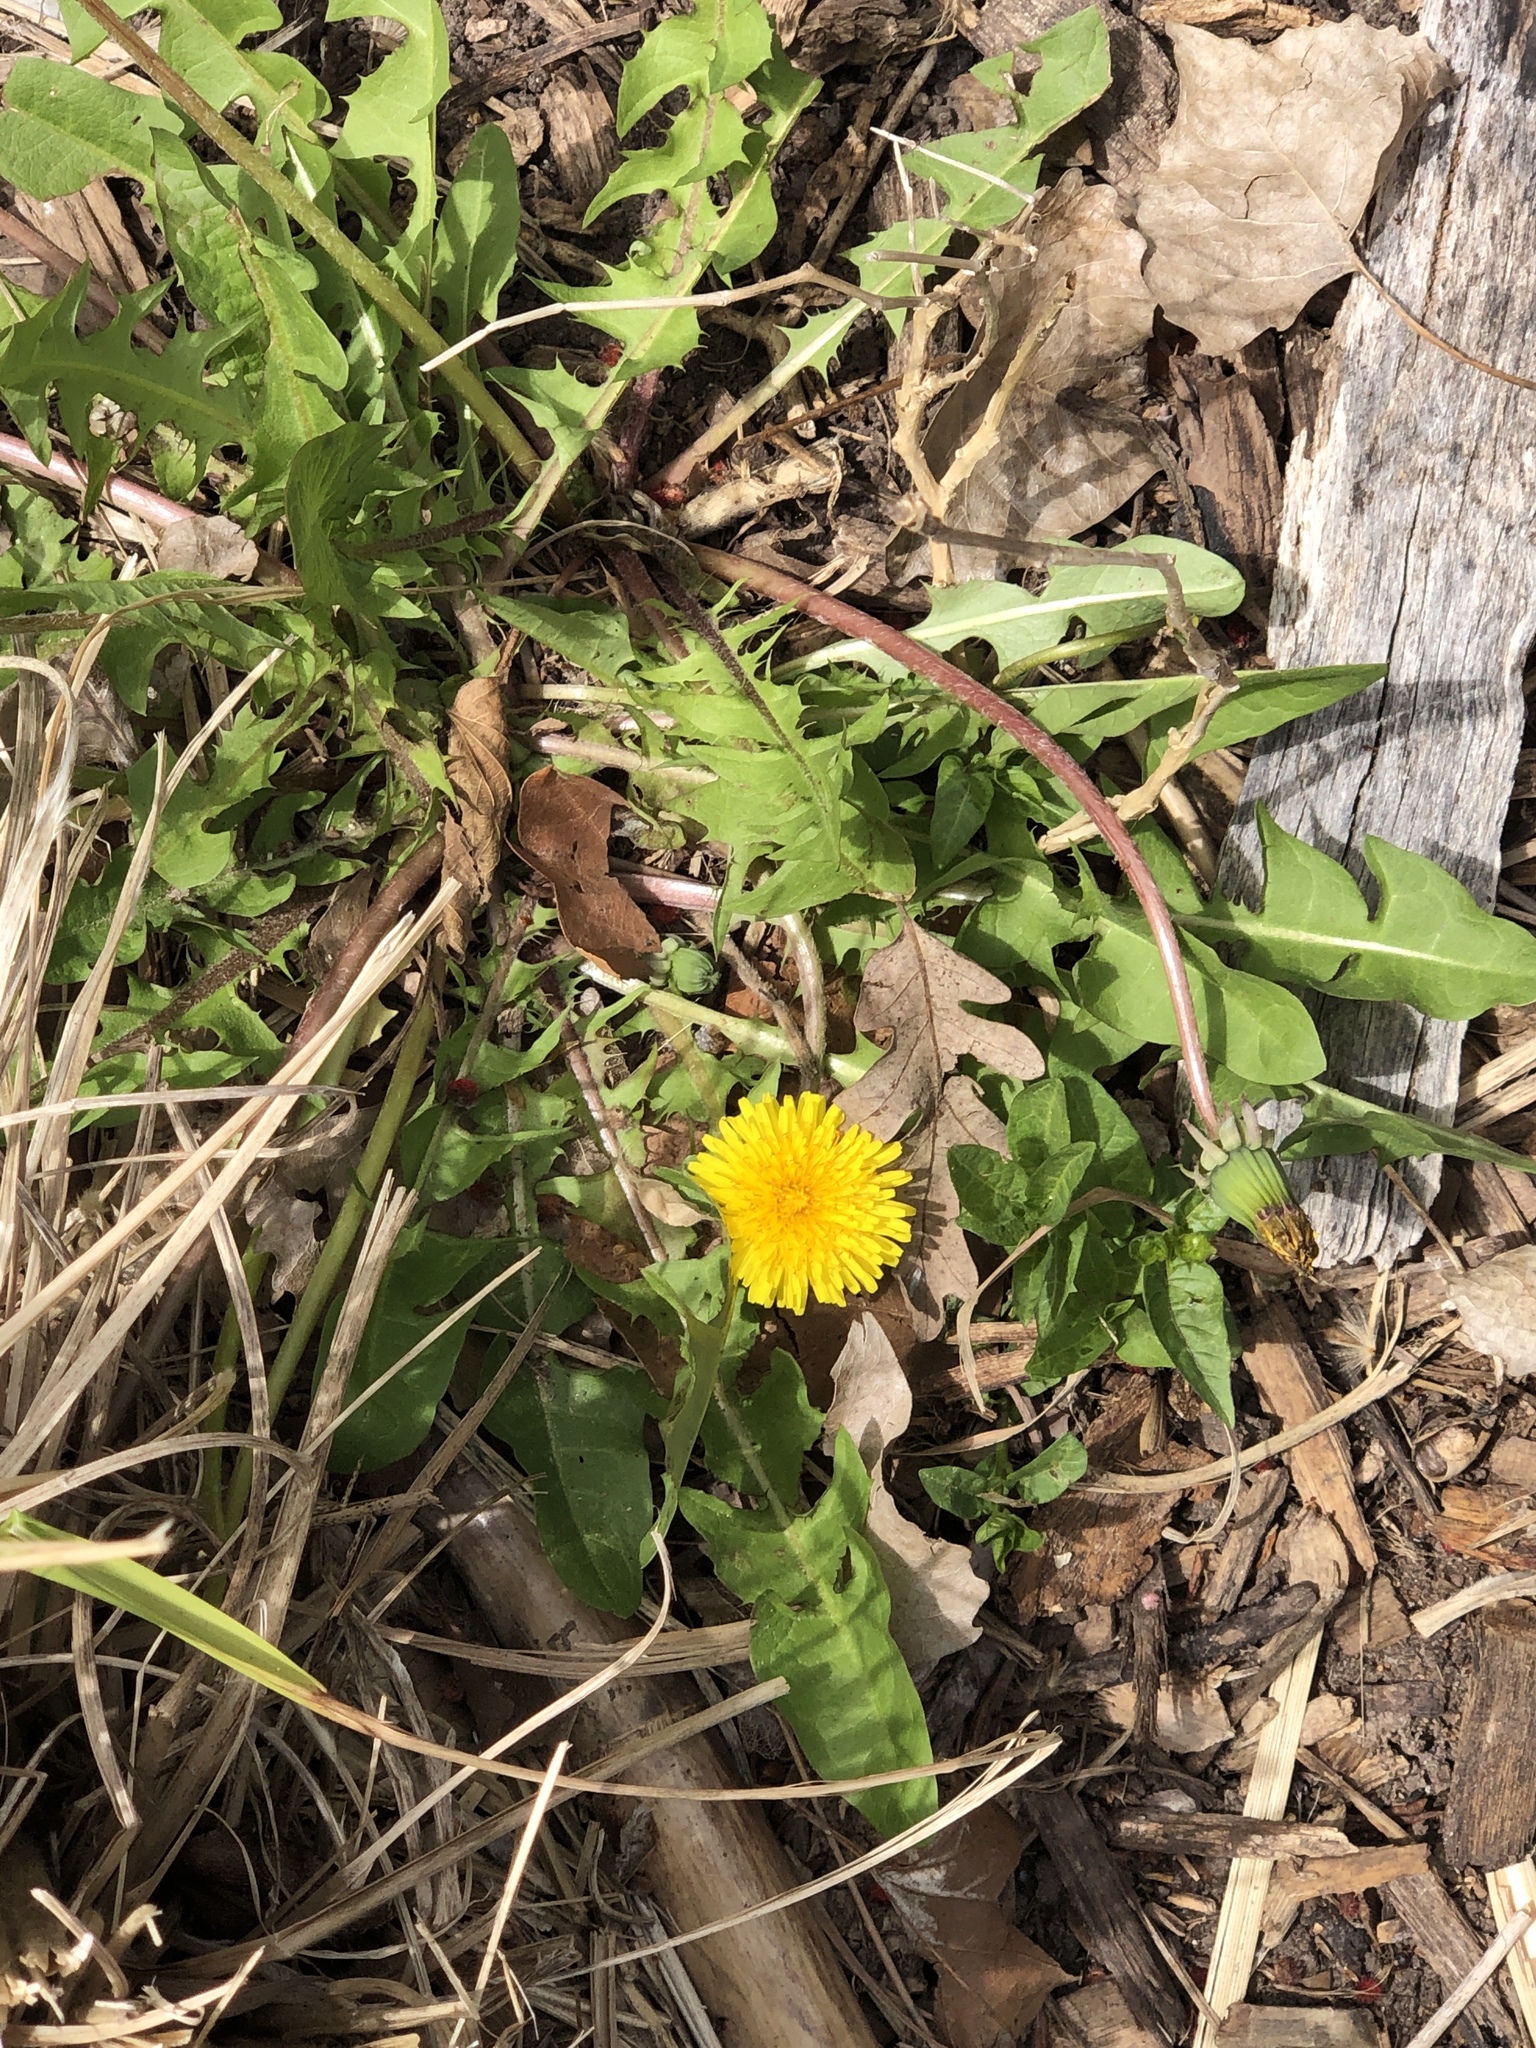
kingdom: Plantae
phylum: Tracheophyta
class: Magnoliopsida
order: Asterales
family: Asteraceae
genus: Taraxacum
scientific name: Taraxacum officinale
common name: Common dandelion
